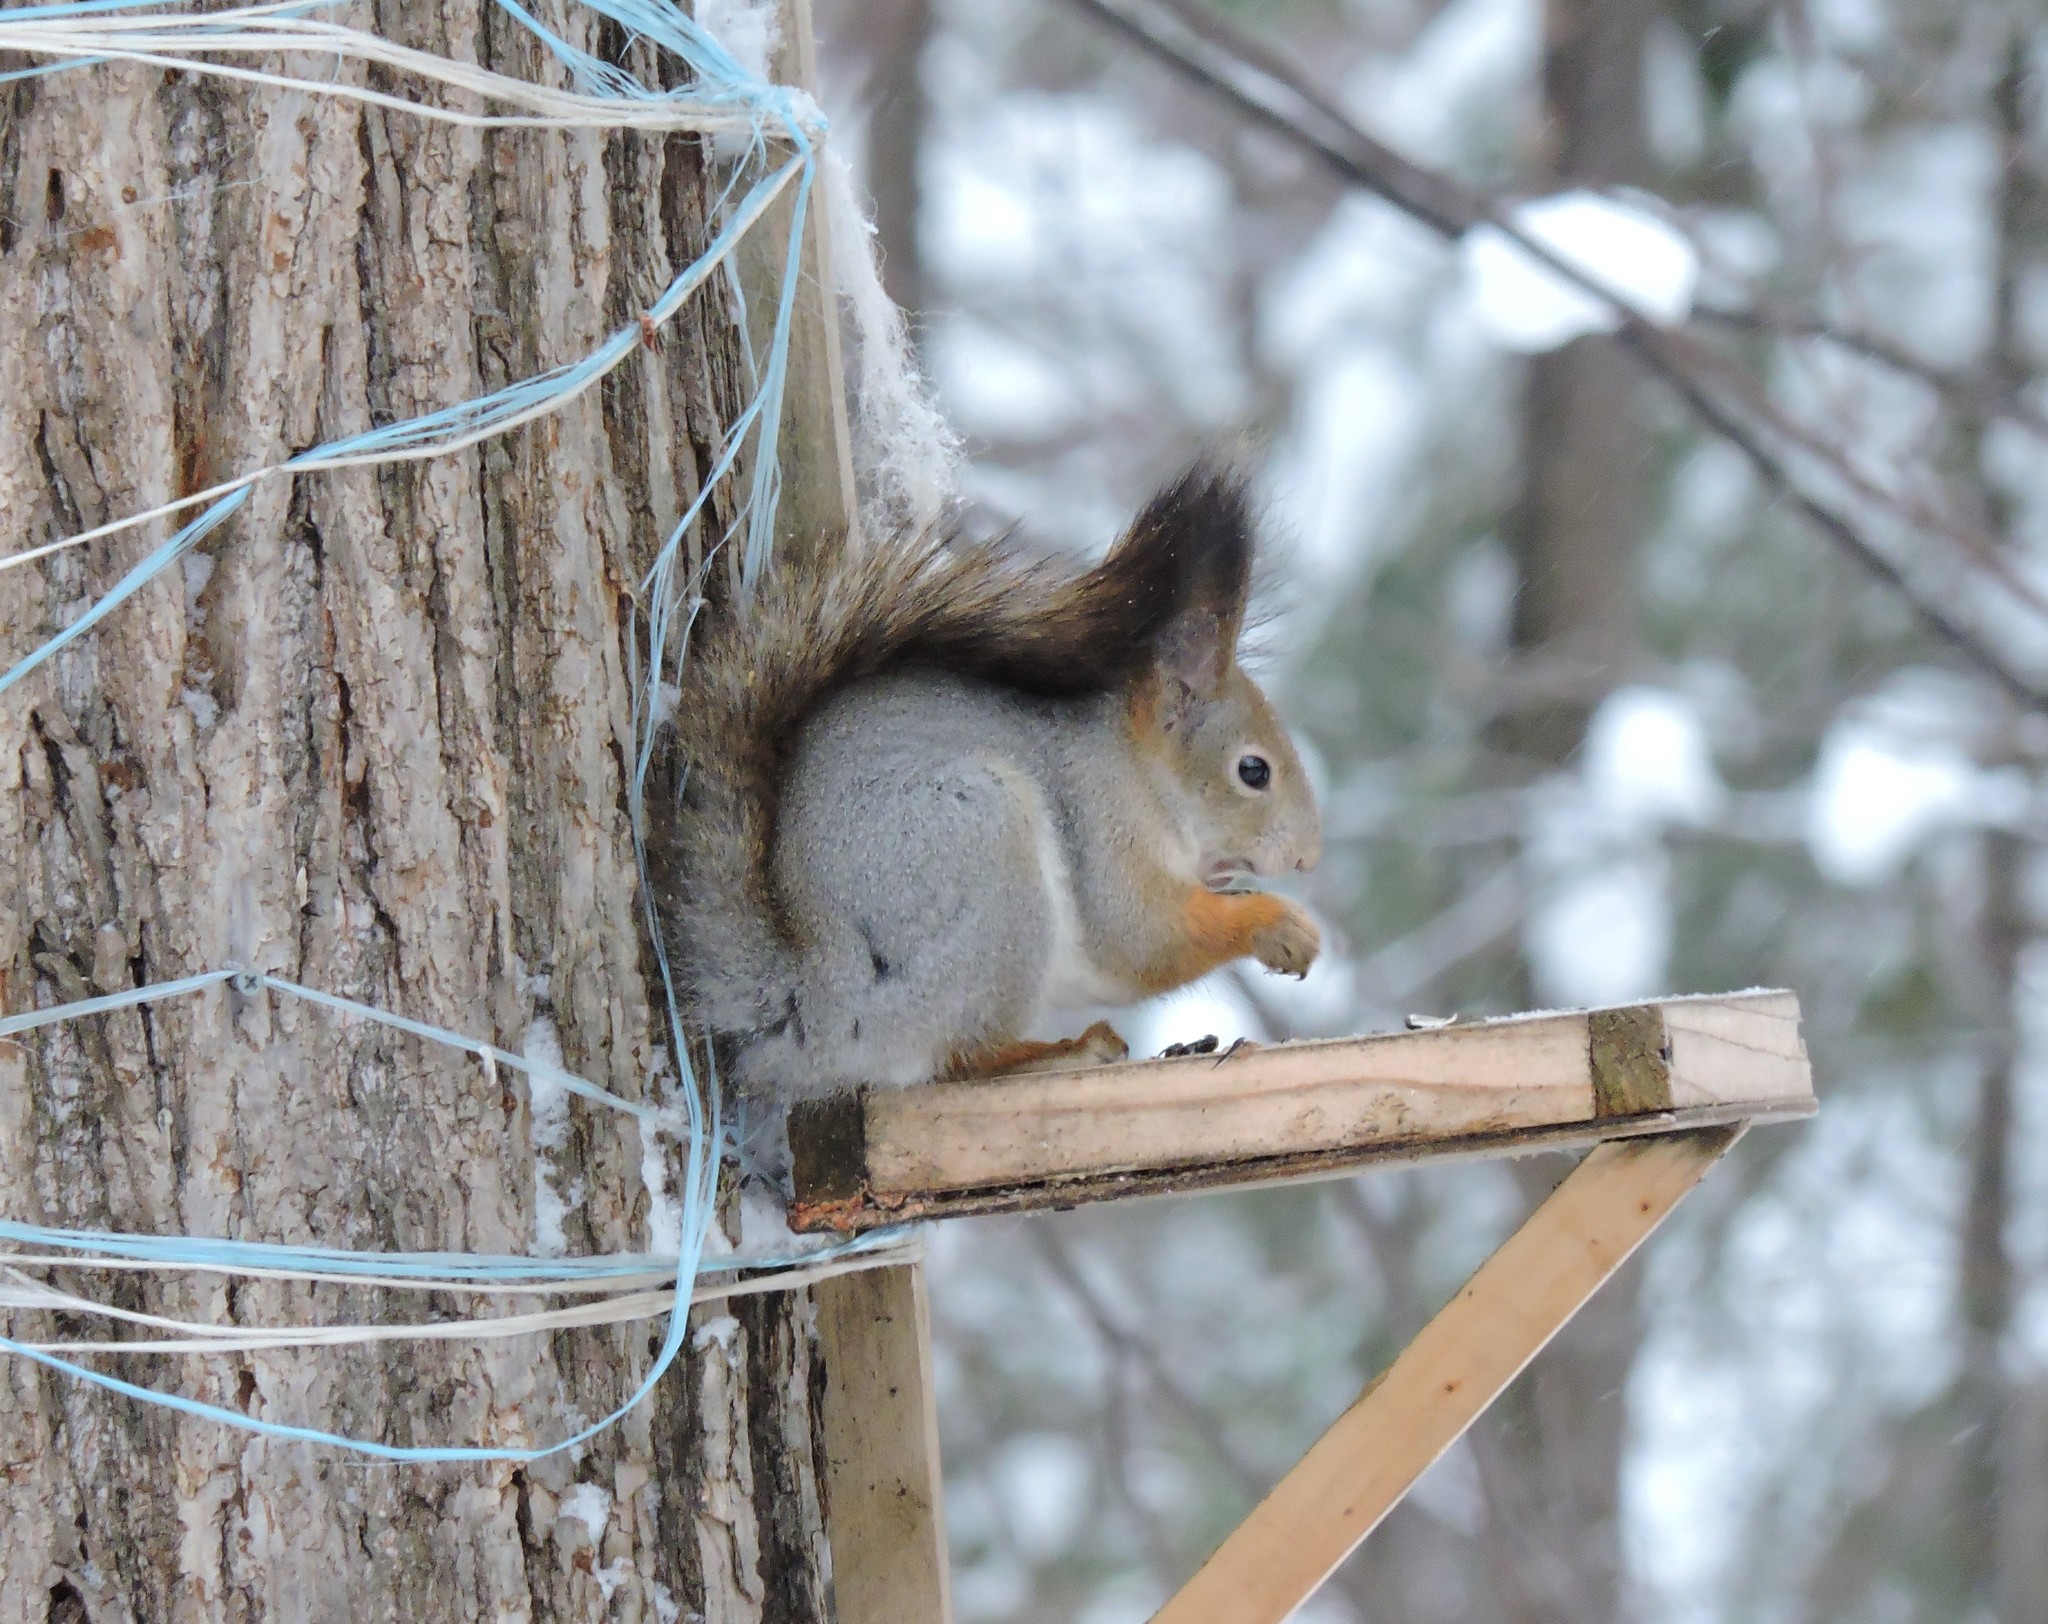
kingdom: Animalia
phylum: Chordata
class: Mammalia
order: Rodentia
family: Sciuridae
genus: Sciurus
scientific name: Sciurus vulgaris
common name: Eurasian red squirrel
